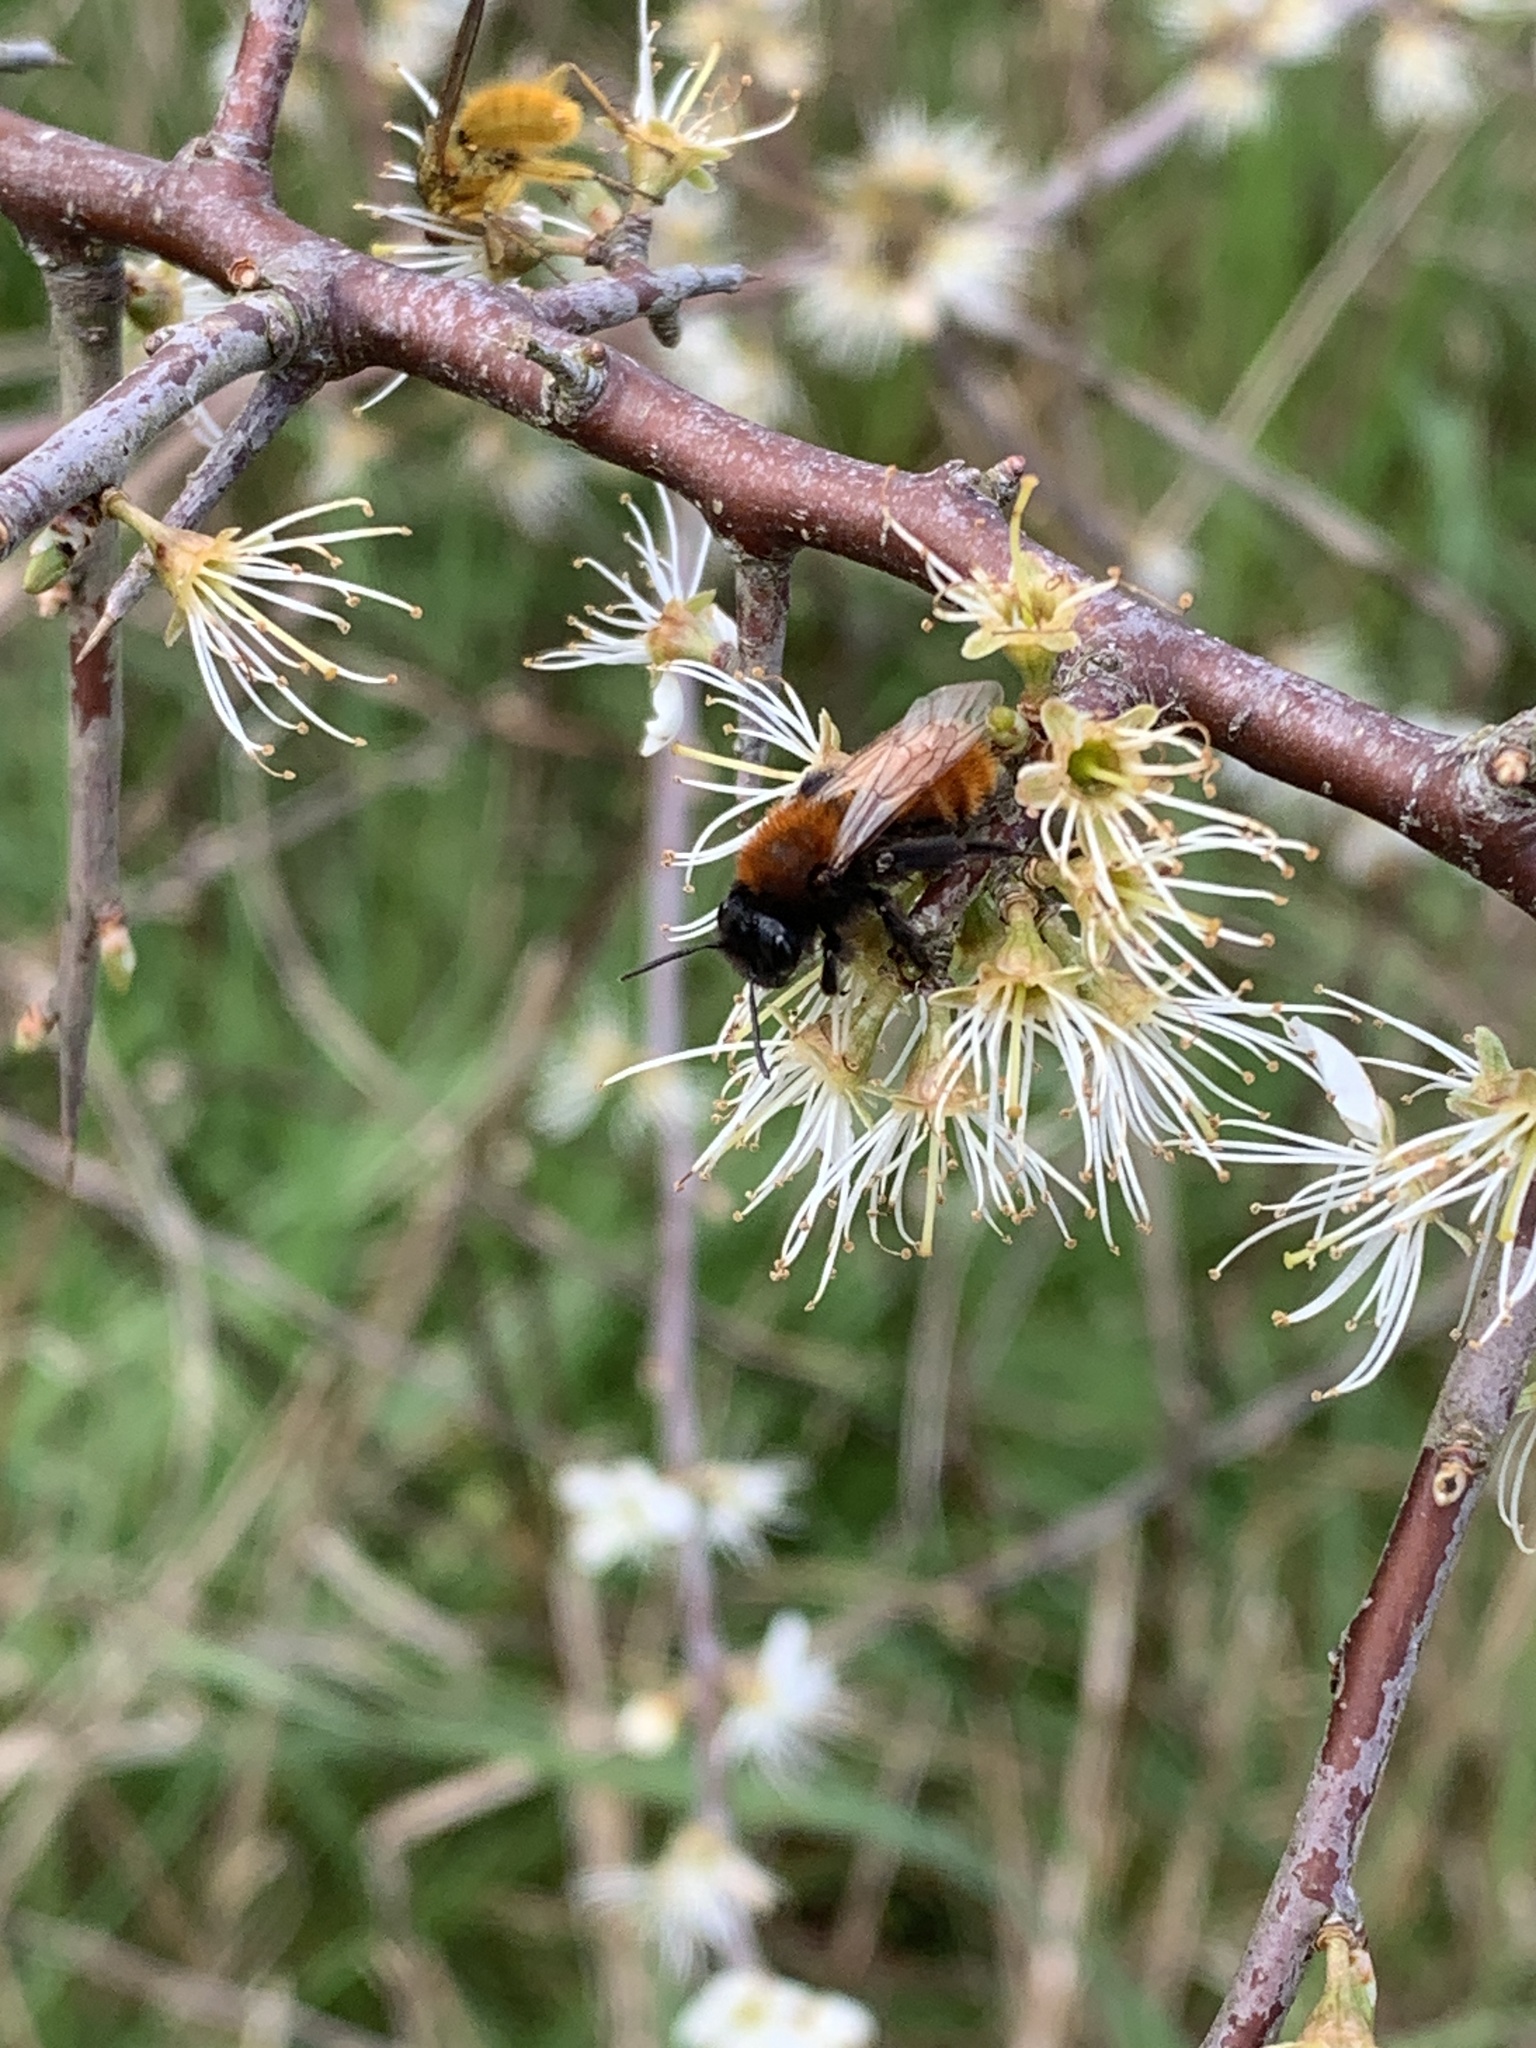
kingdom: Animalia
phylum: Arthropoda
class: Insecta
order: Hymenoptera
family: Andrenidae
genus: Andrena
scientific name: Andrena fulva
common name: Tawny mining bee
